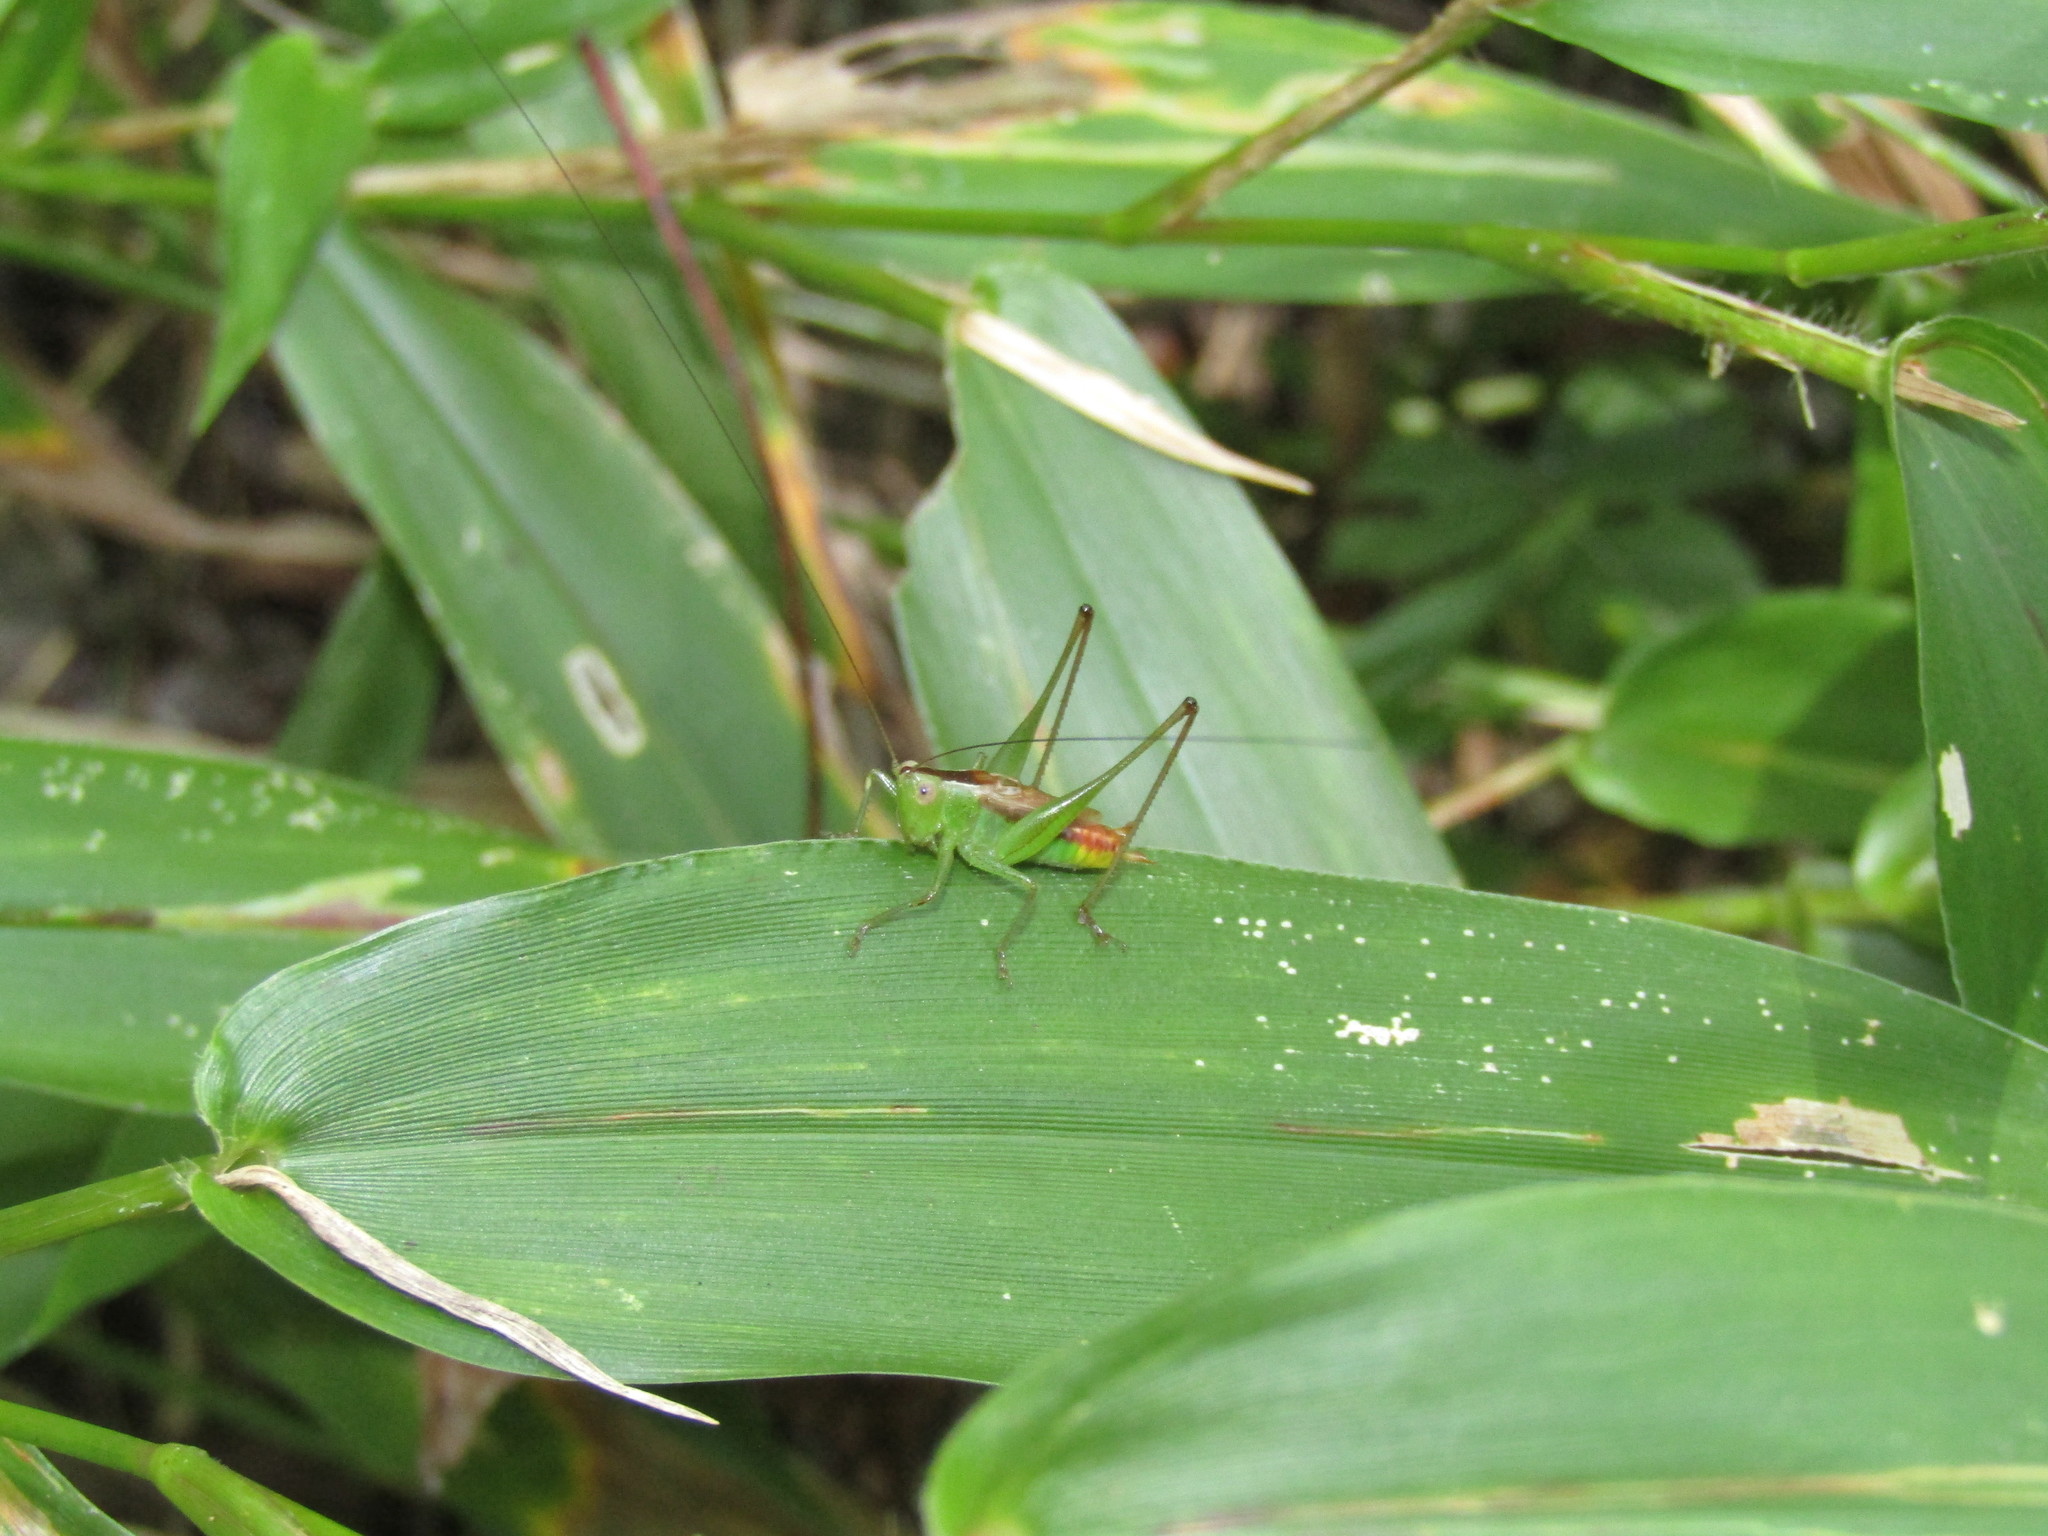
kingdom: Animalia
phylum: Arthropoda
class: Insecta
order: Orthoptera
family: Tettigoniidae
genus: Conocephalus
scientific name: Conocephalus brevipennis
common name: Short-winged meadow katydid
